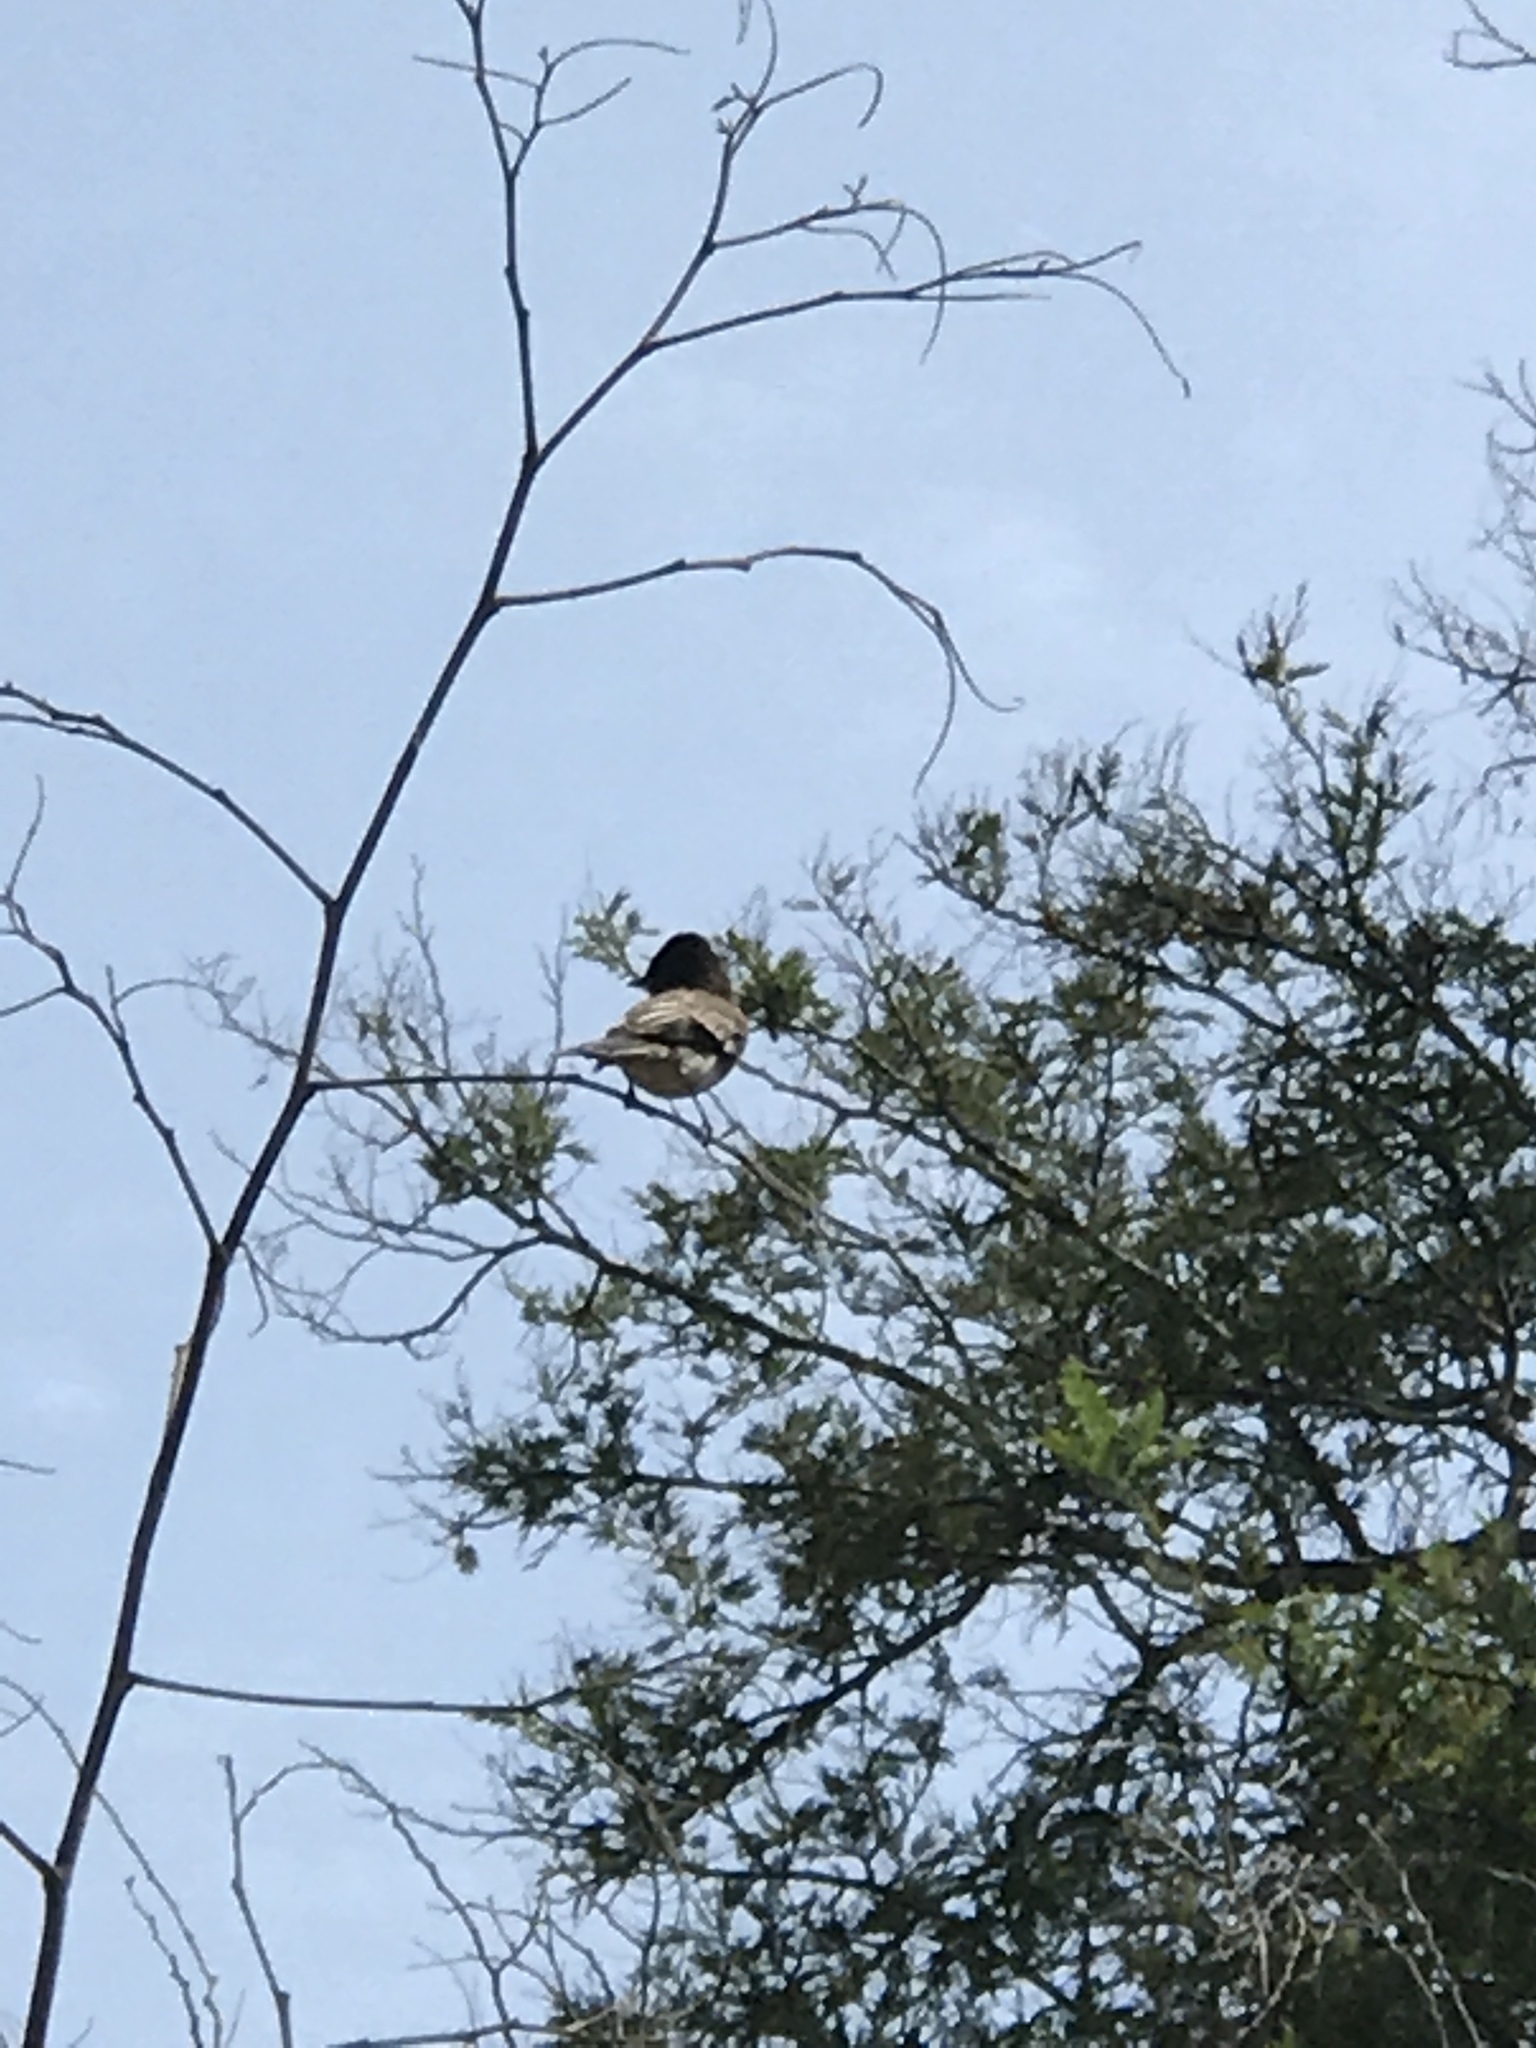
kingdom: Animalia
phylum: Chordata
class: Aves
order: Passeriformes
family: Tyrannidae
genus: Sayornis
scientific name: Sayornis nigricans
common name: Black phoebe
